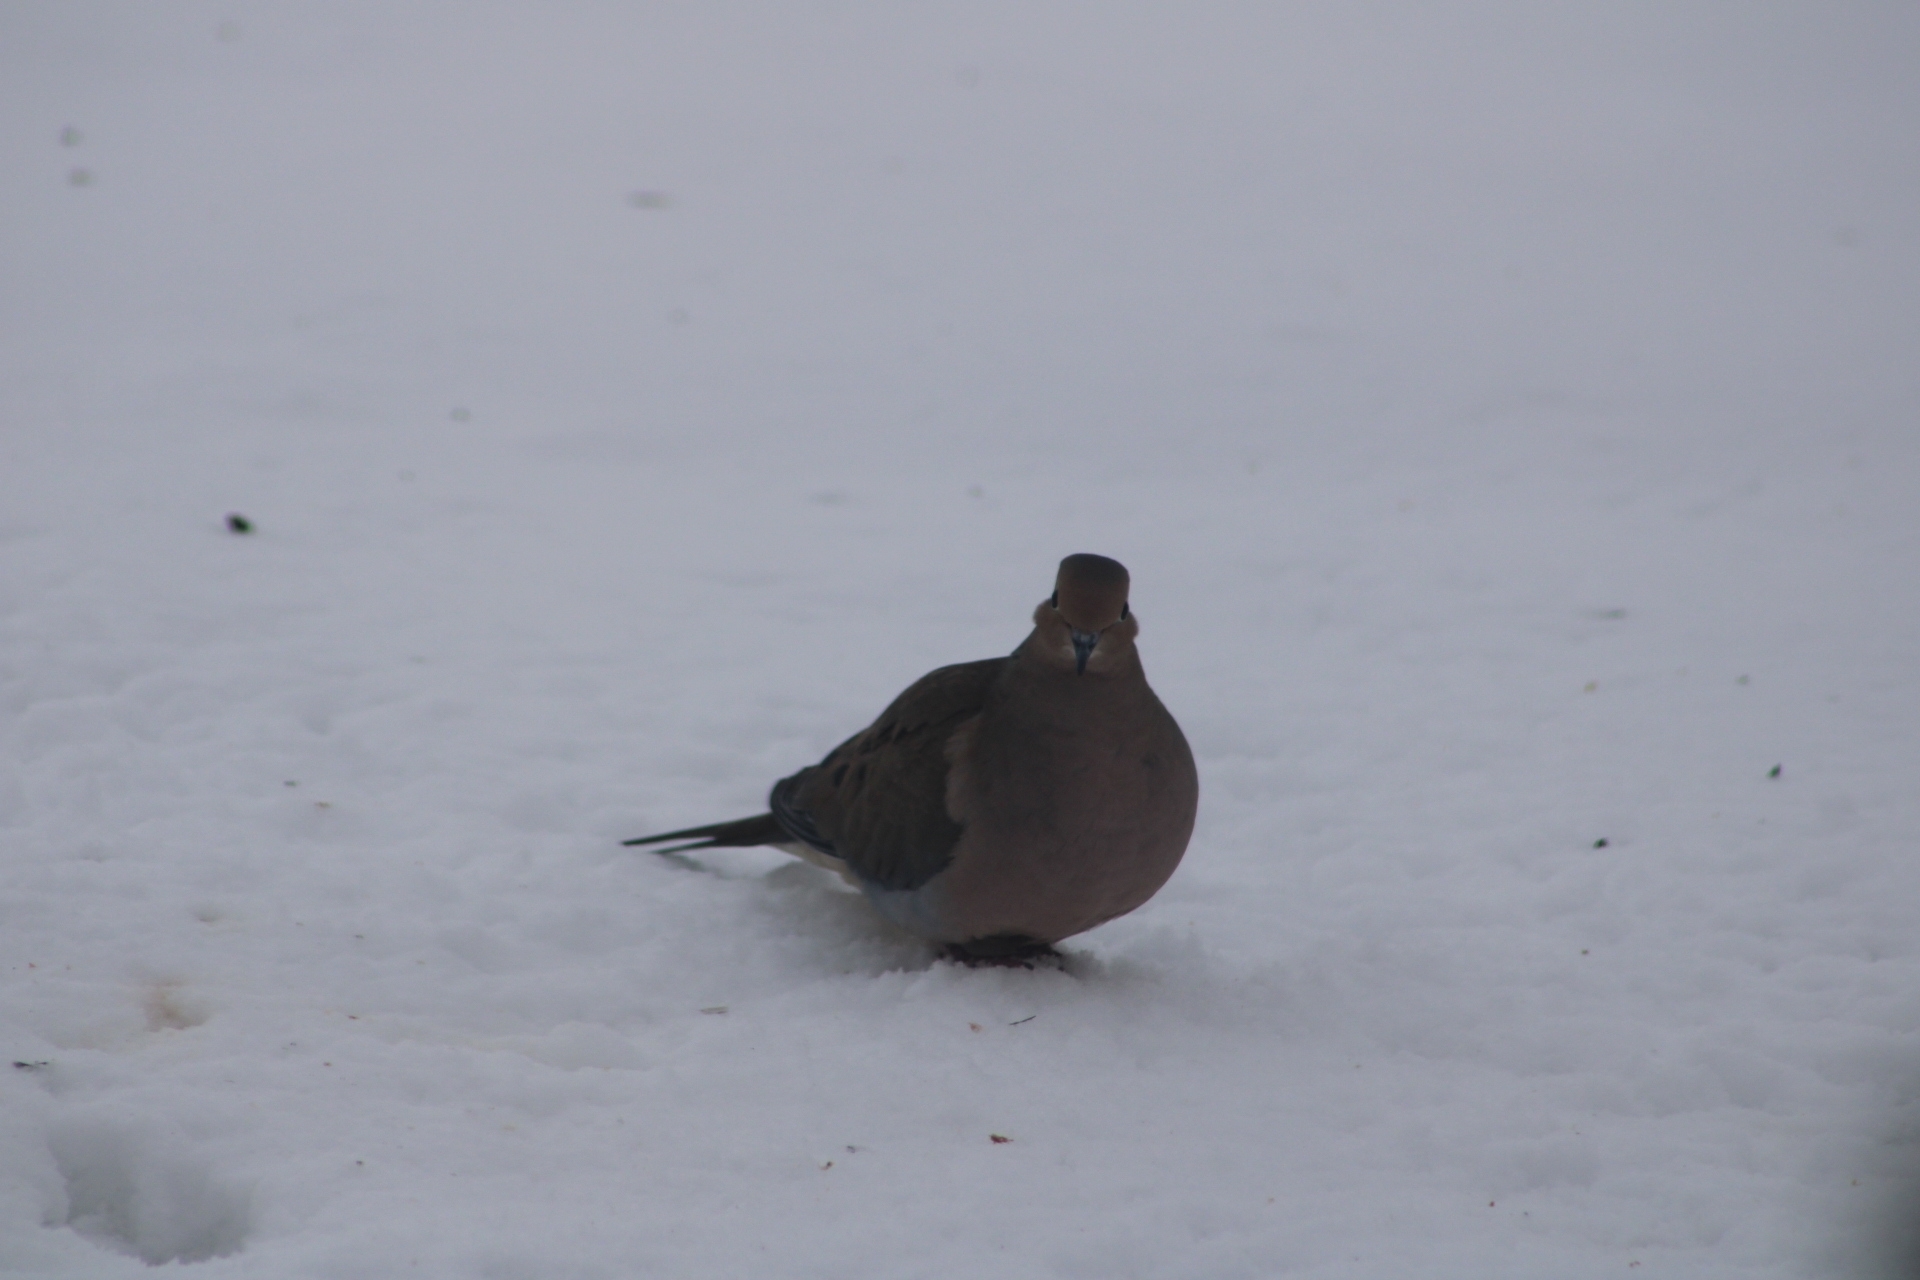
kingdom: Animalia
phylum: Chordata
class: Aves
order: Columbiformes
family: Columbidae
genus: Zenaida
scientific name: Zenaida macroura
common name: Mourning dove
